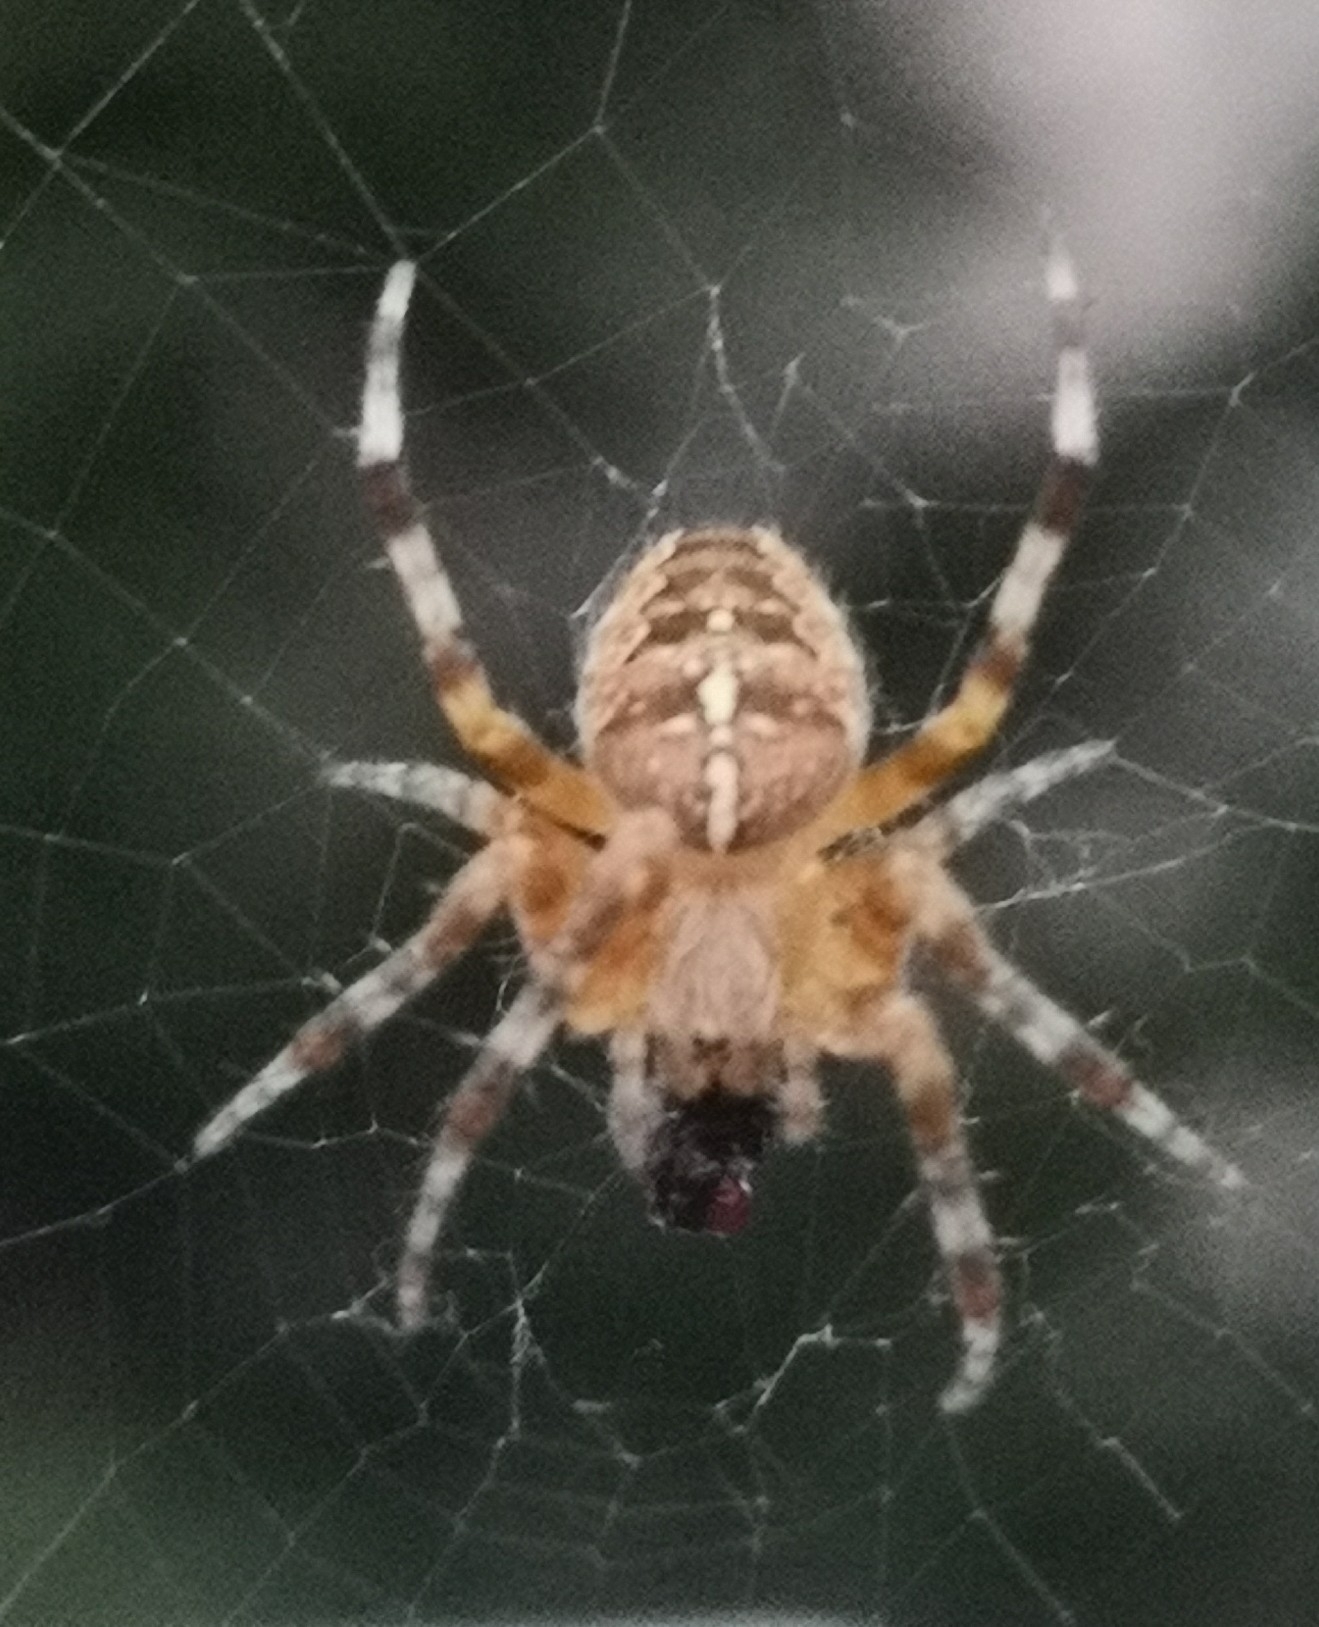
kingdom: Animalia
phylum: Arthropoda
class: Arachnida
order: Araneae
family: Araneidae
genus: Araneus
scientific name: Araneus diadematus
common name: Cross orbweaver
